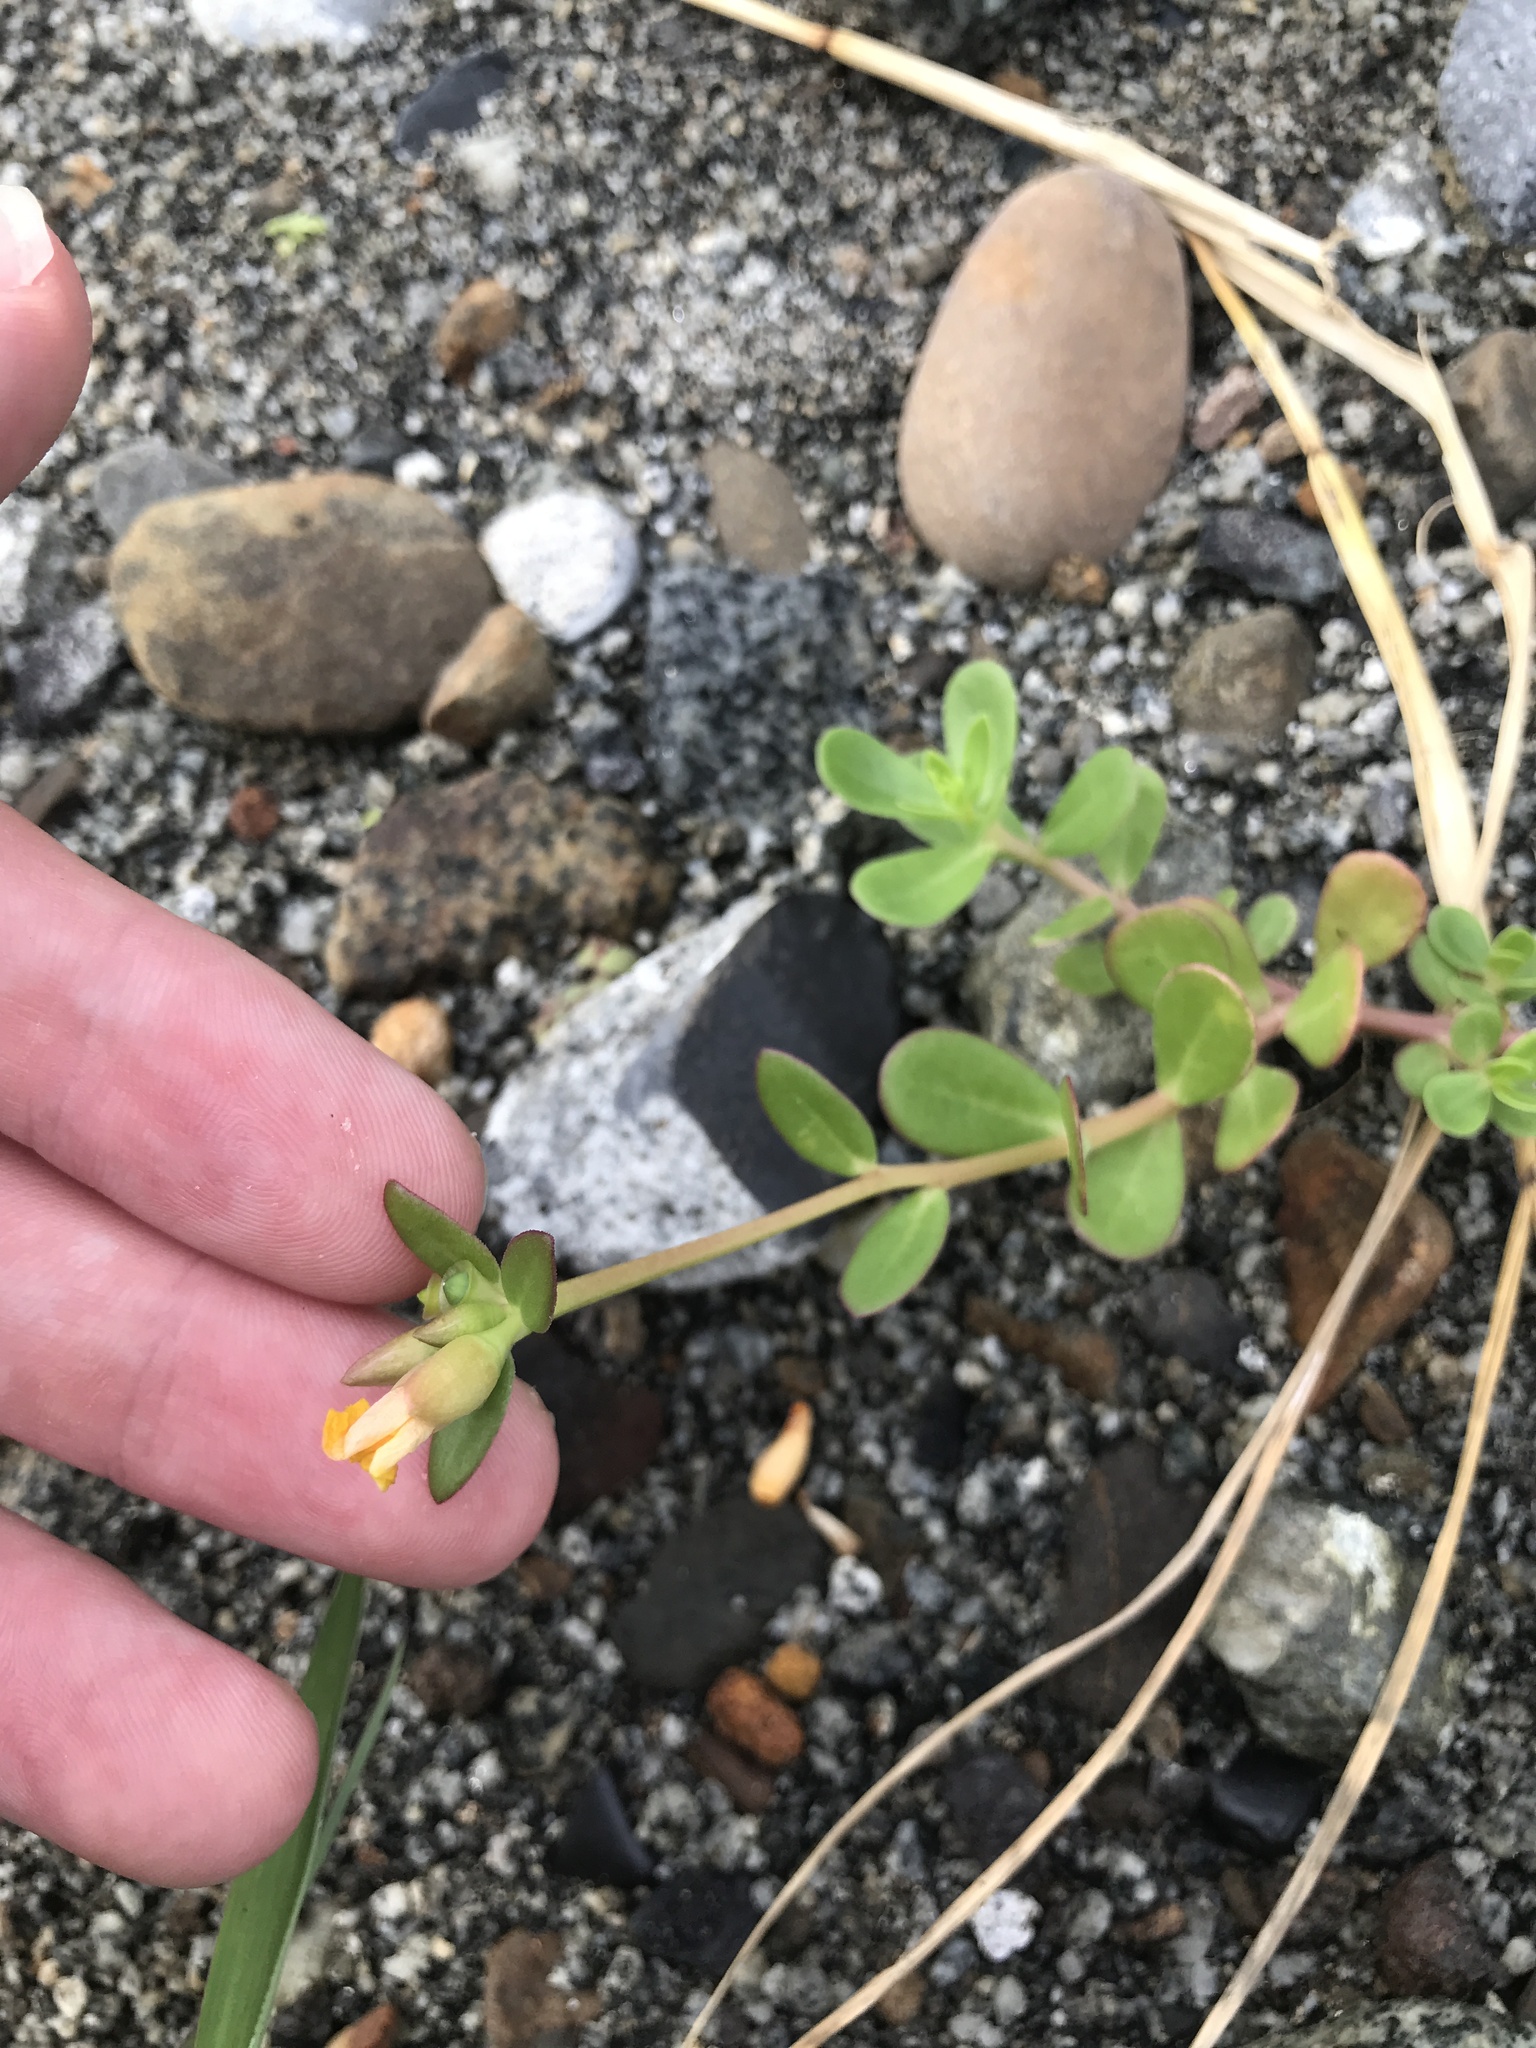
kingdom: Plantae
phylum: Tracheophyta
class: Magnoliopsida
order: Caryophyllales
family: Portulacaceae
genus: Portulaca
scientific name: Portulaca oleracea
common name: Common purslane
